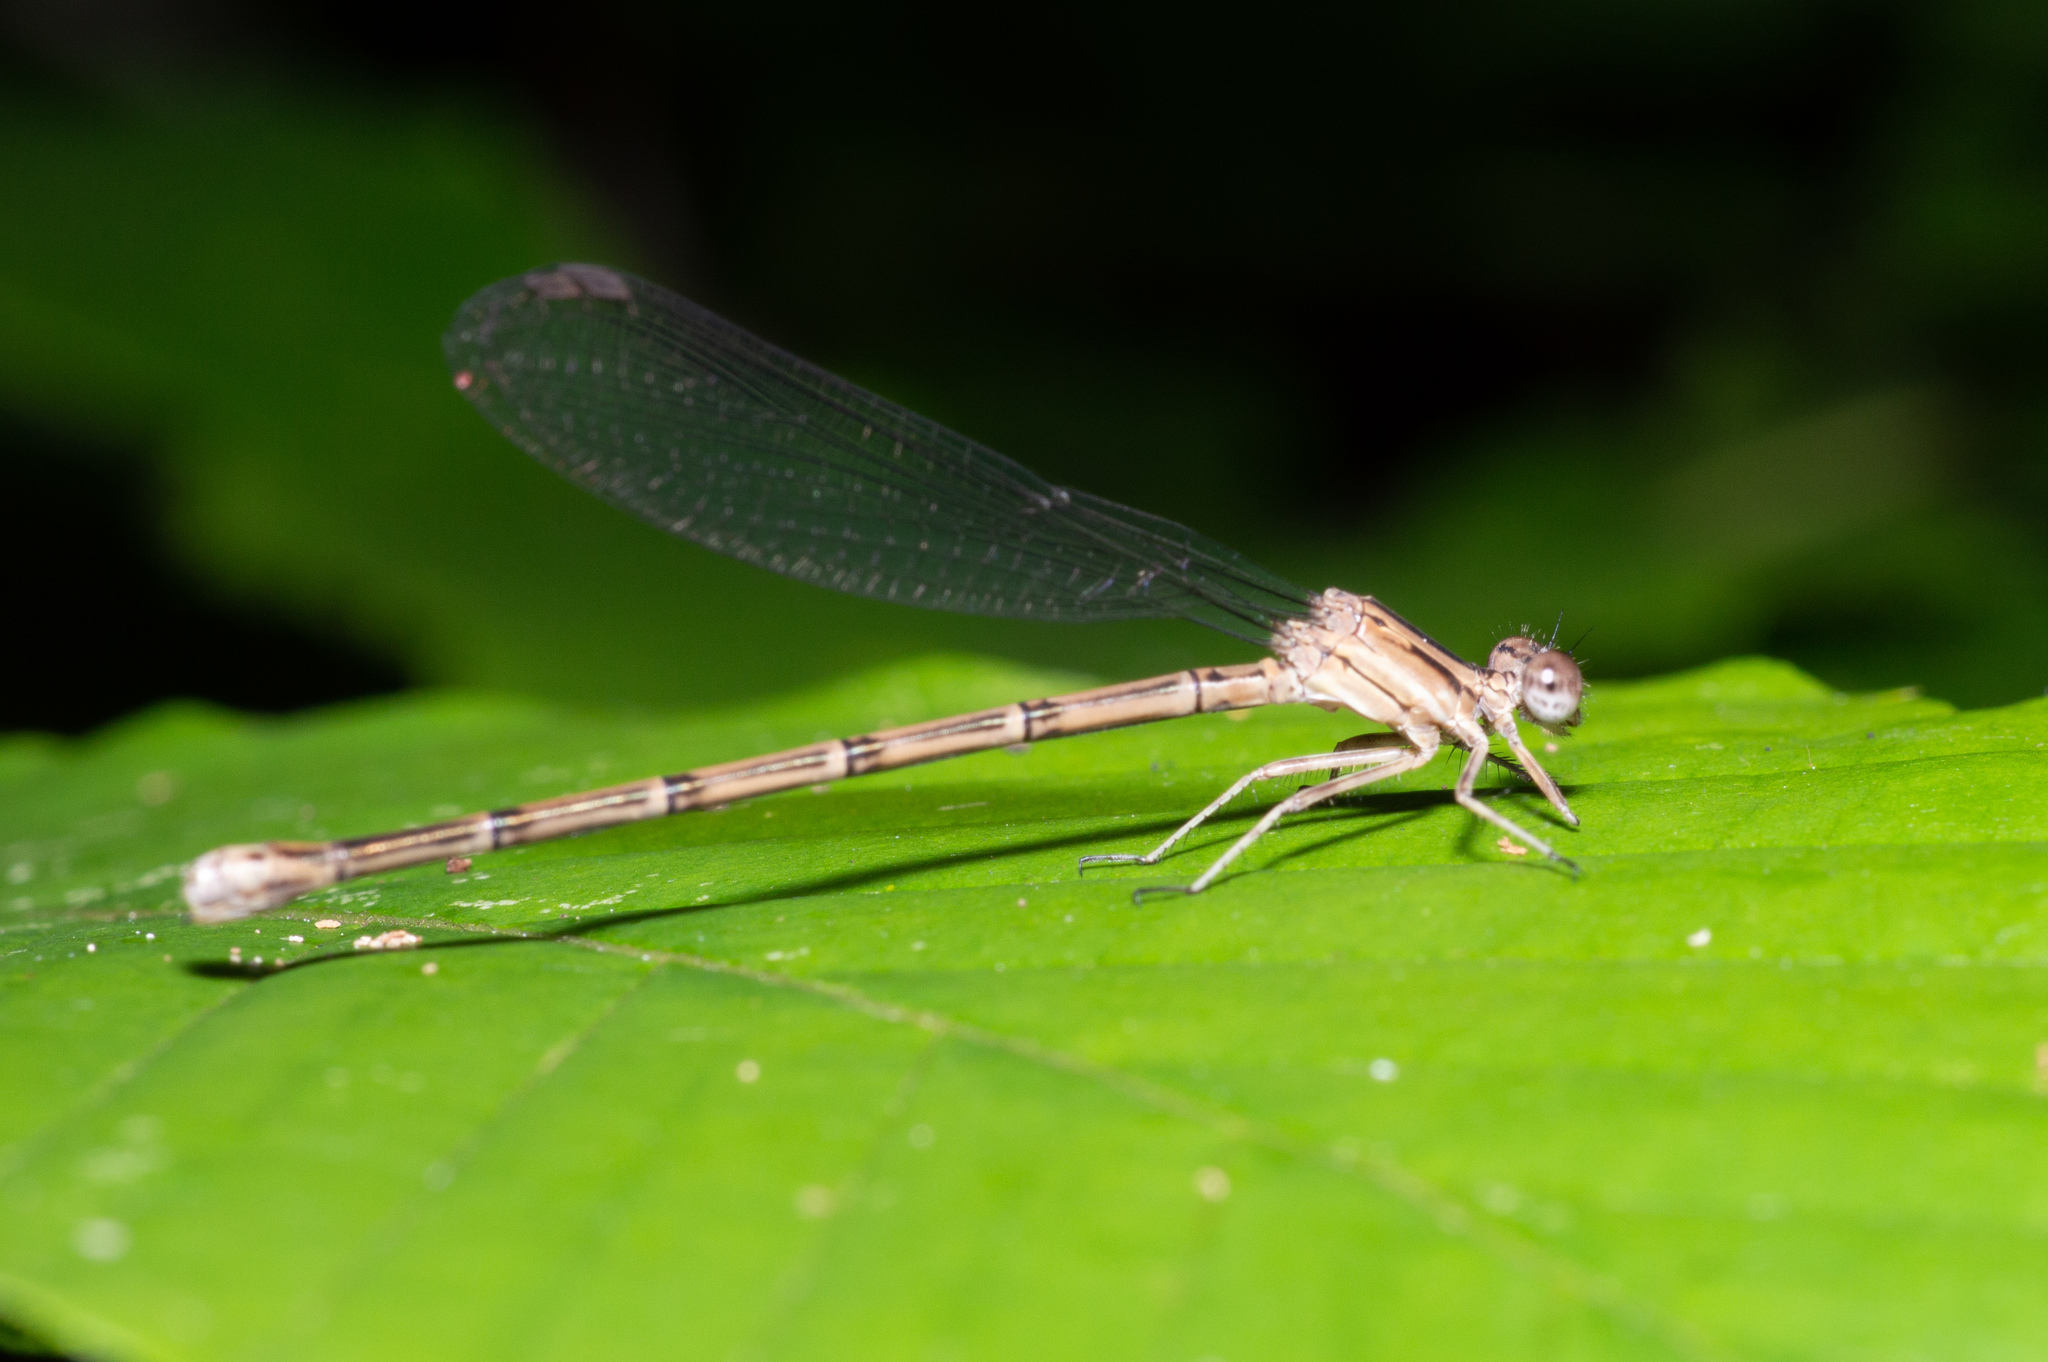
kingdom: Animalia
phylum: Arthropoda
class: Insecta
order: Odonata
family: Coenagrionidae
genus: Argia
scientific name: Argia fumipennis
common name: Variable dancer
